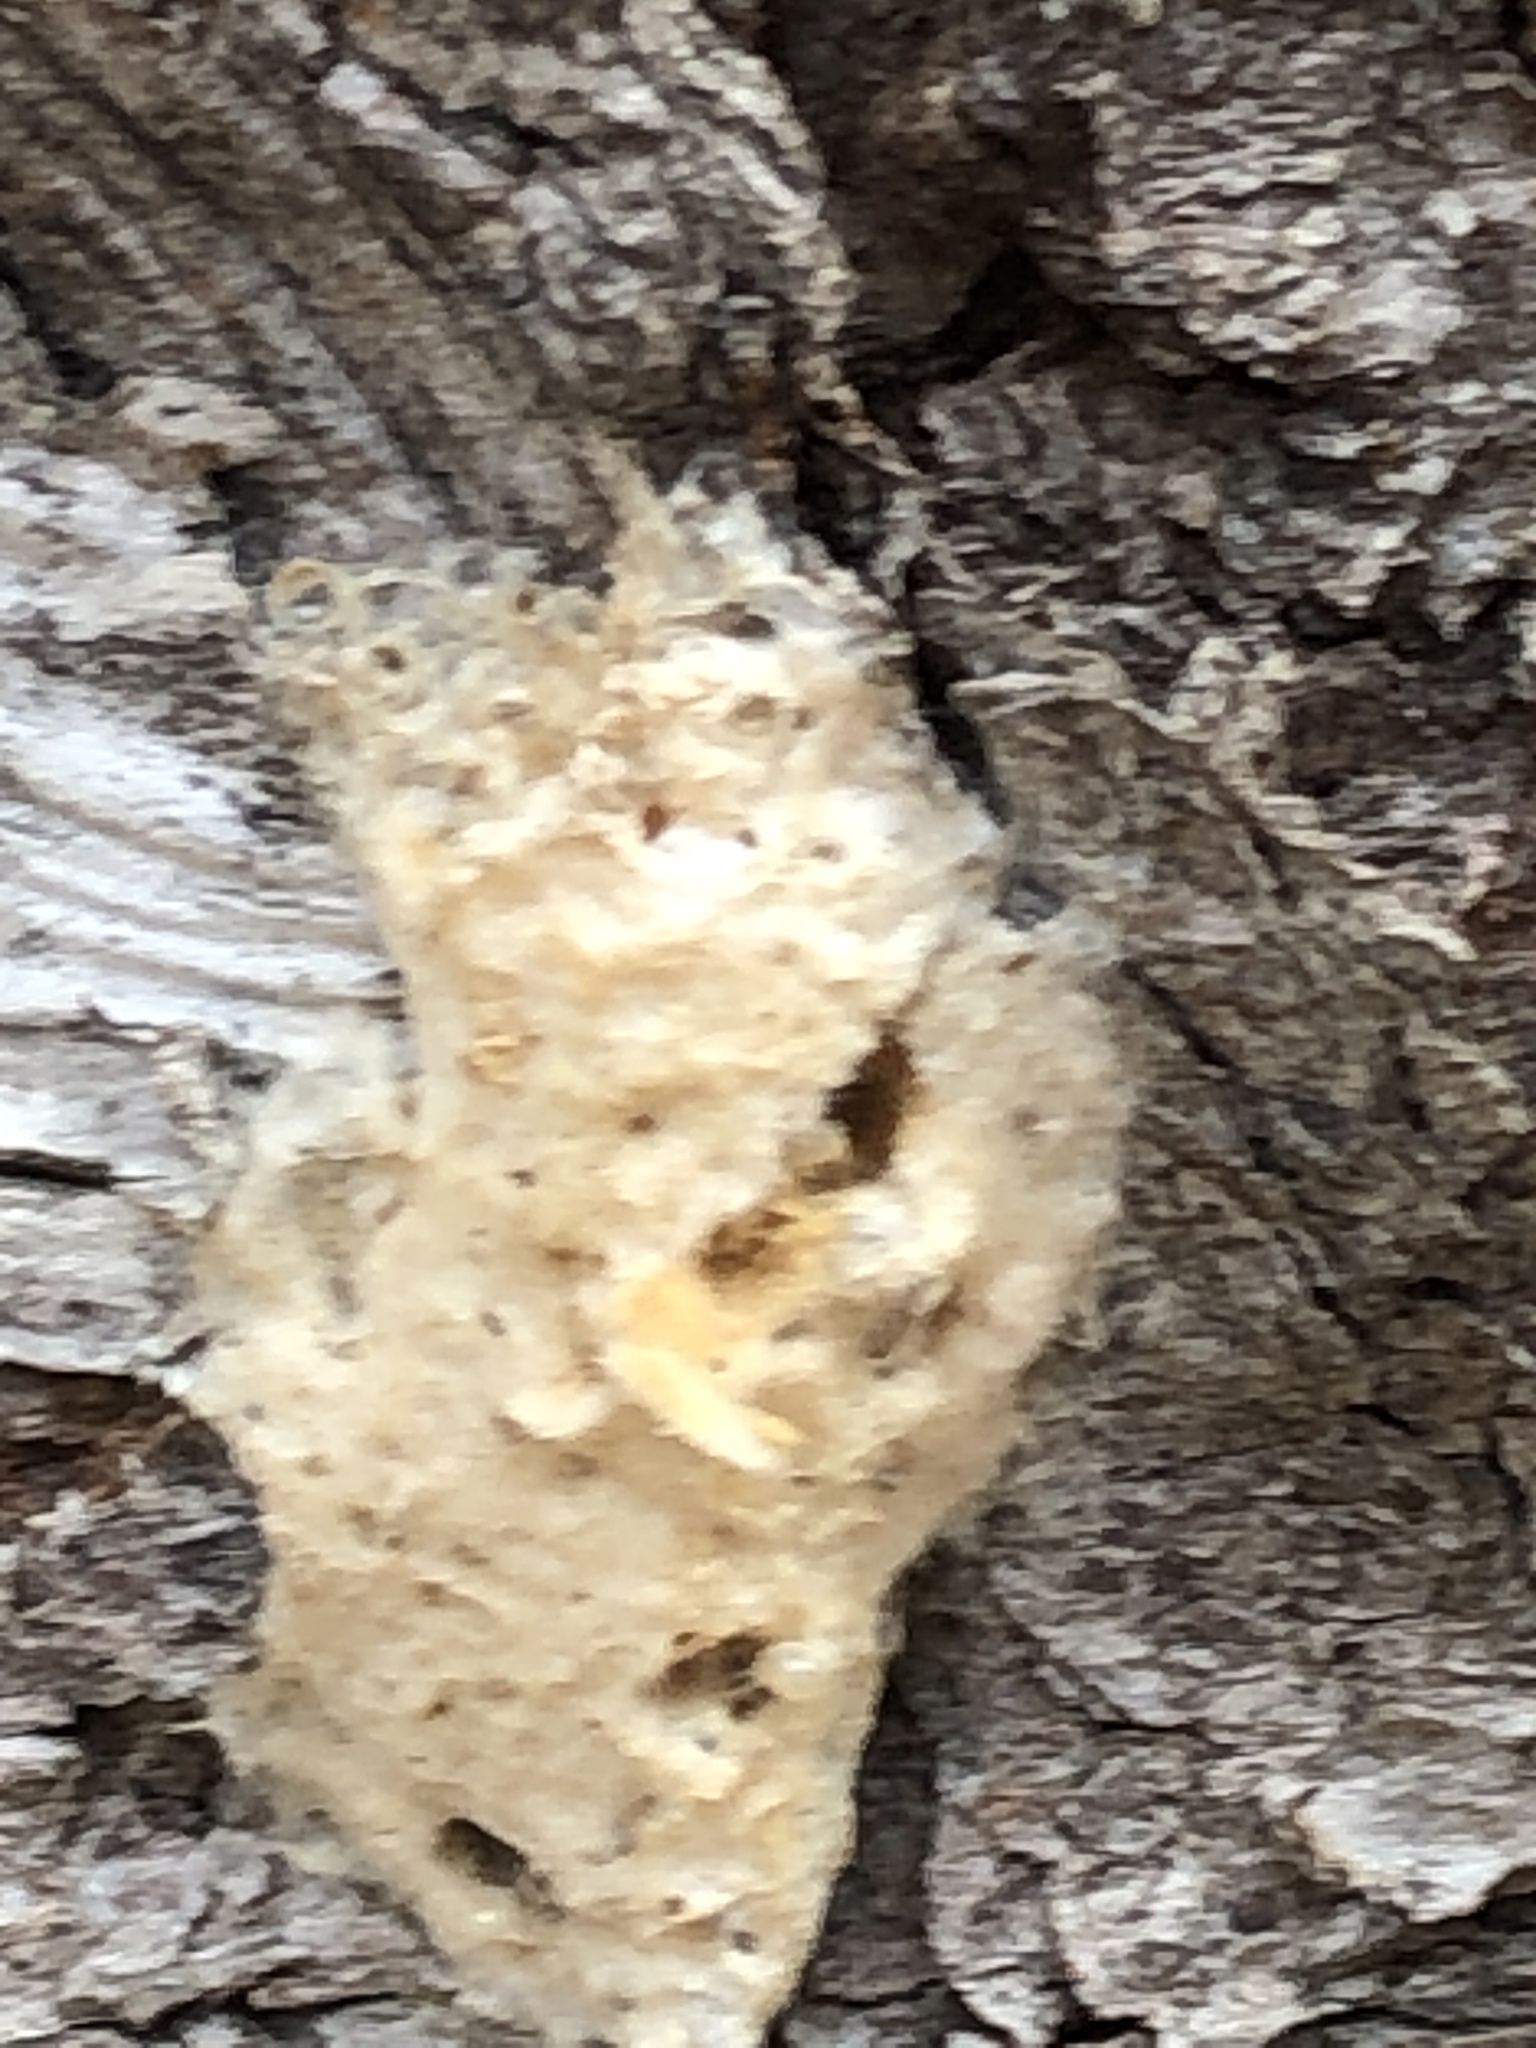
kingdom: Animalia
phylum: Arthropoda
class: Insecta
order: Lepidoptera
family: Erebidae
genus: Lymantria
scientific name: Lymantria dispar
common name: Gypsy moth
